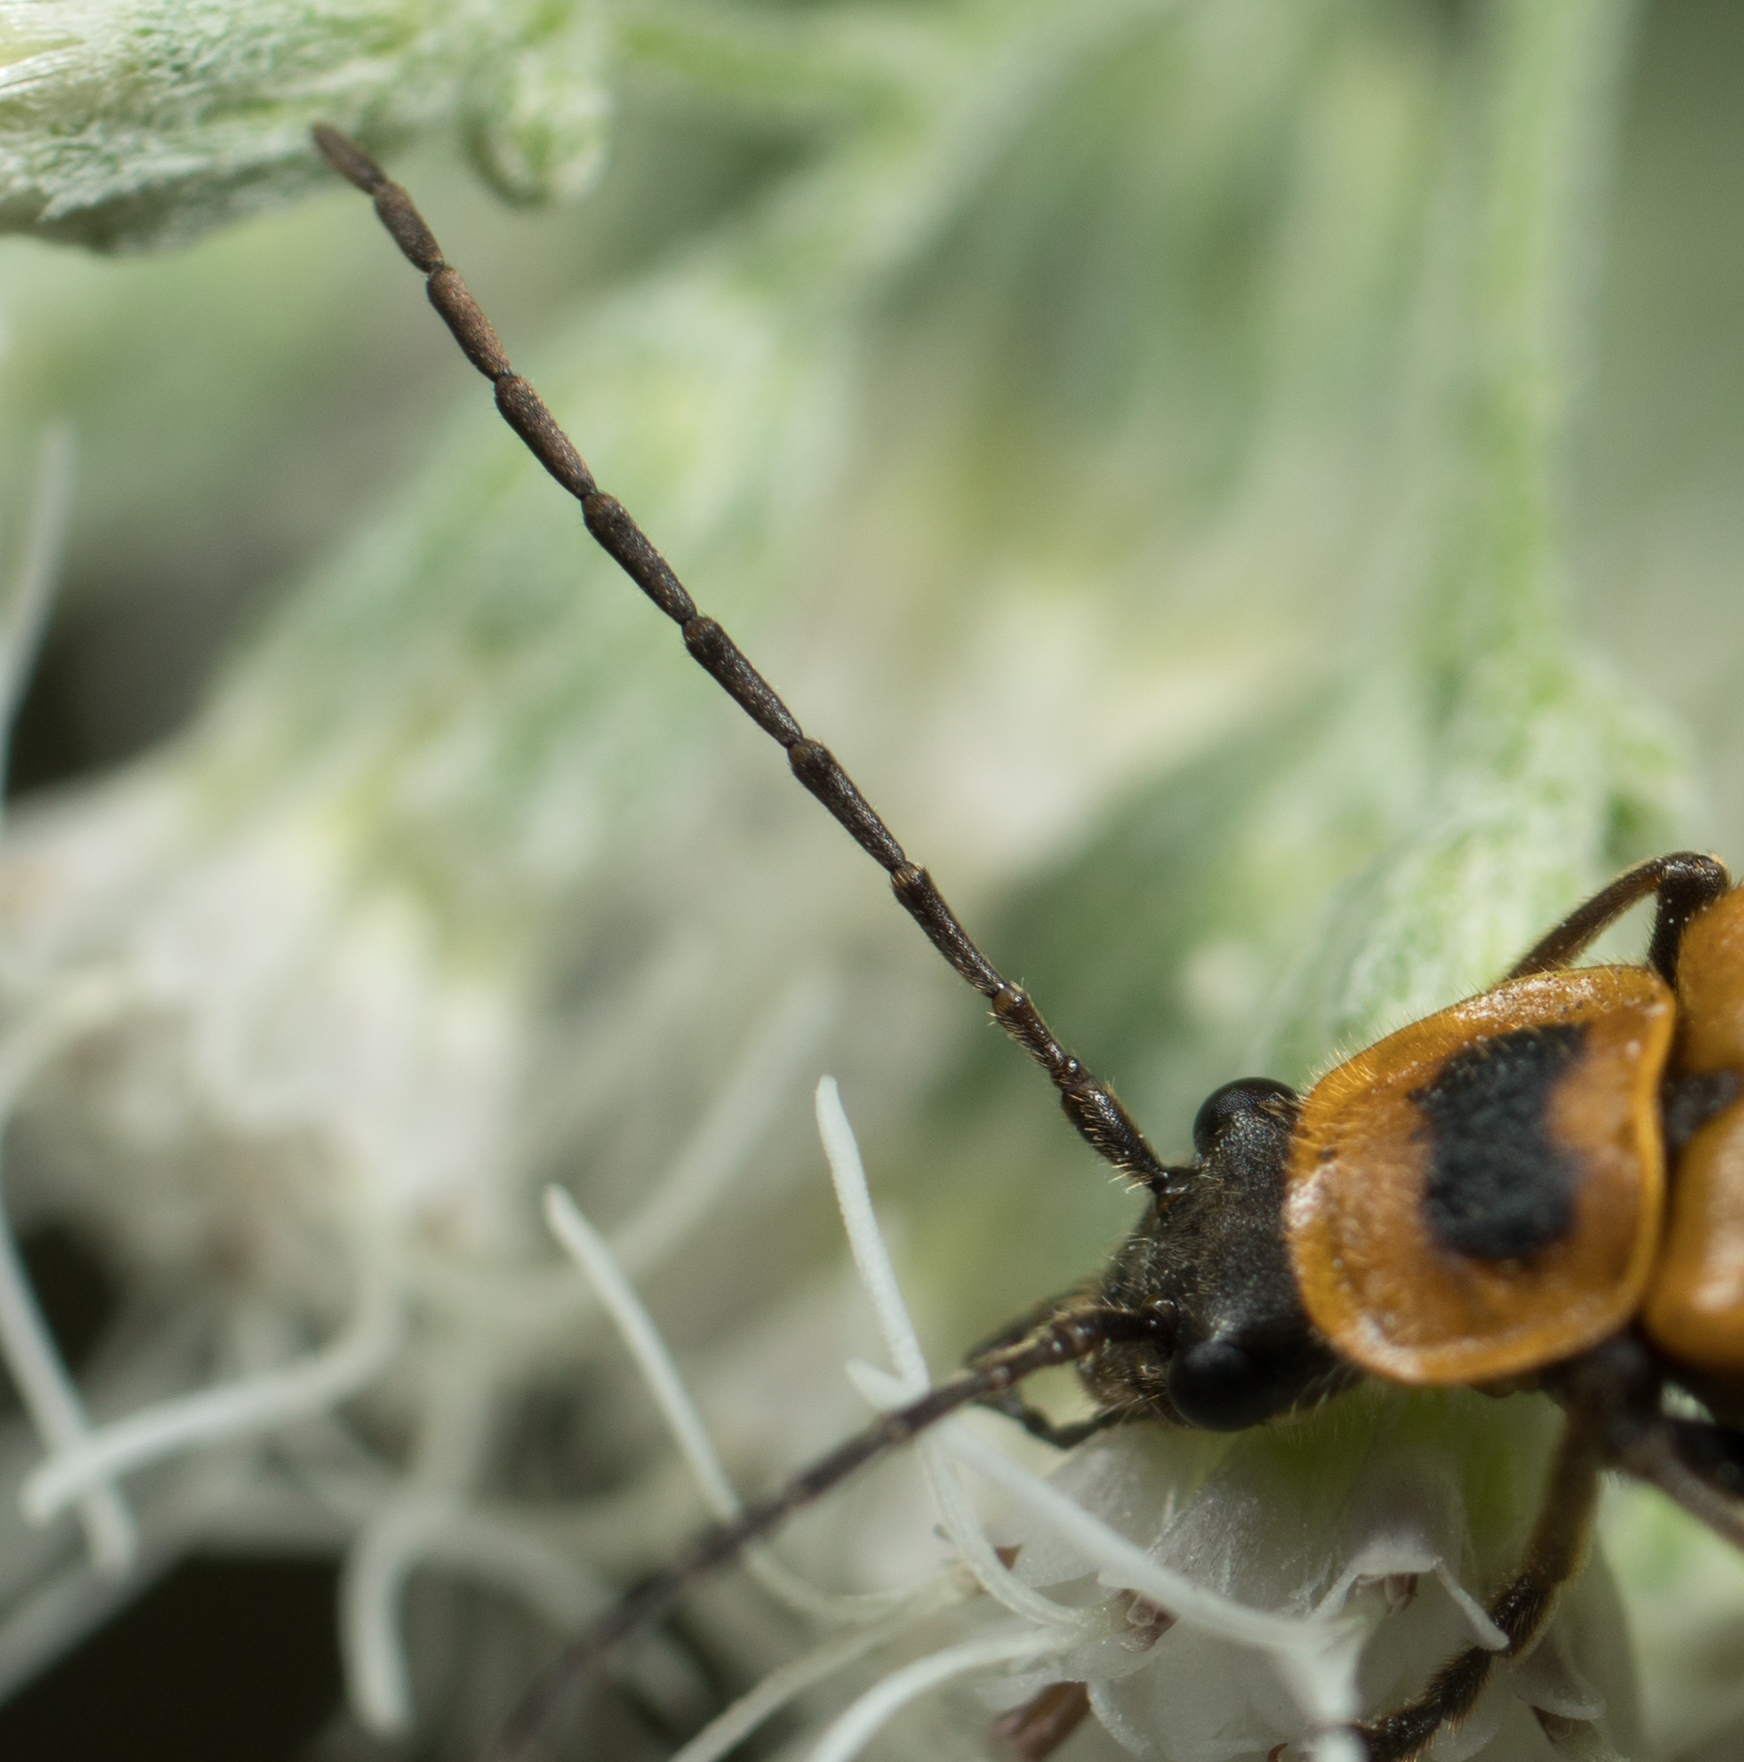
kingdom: Animalia
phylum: Arthropoda
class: Insecta
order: Coleoptera
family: Cantharidae
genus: Chauliognathus
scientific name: Chauliognathus pensylvanicus
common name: Goldenrod soldier beetle
